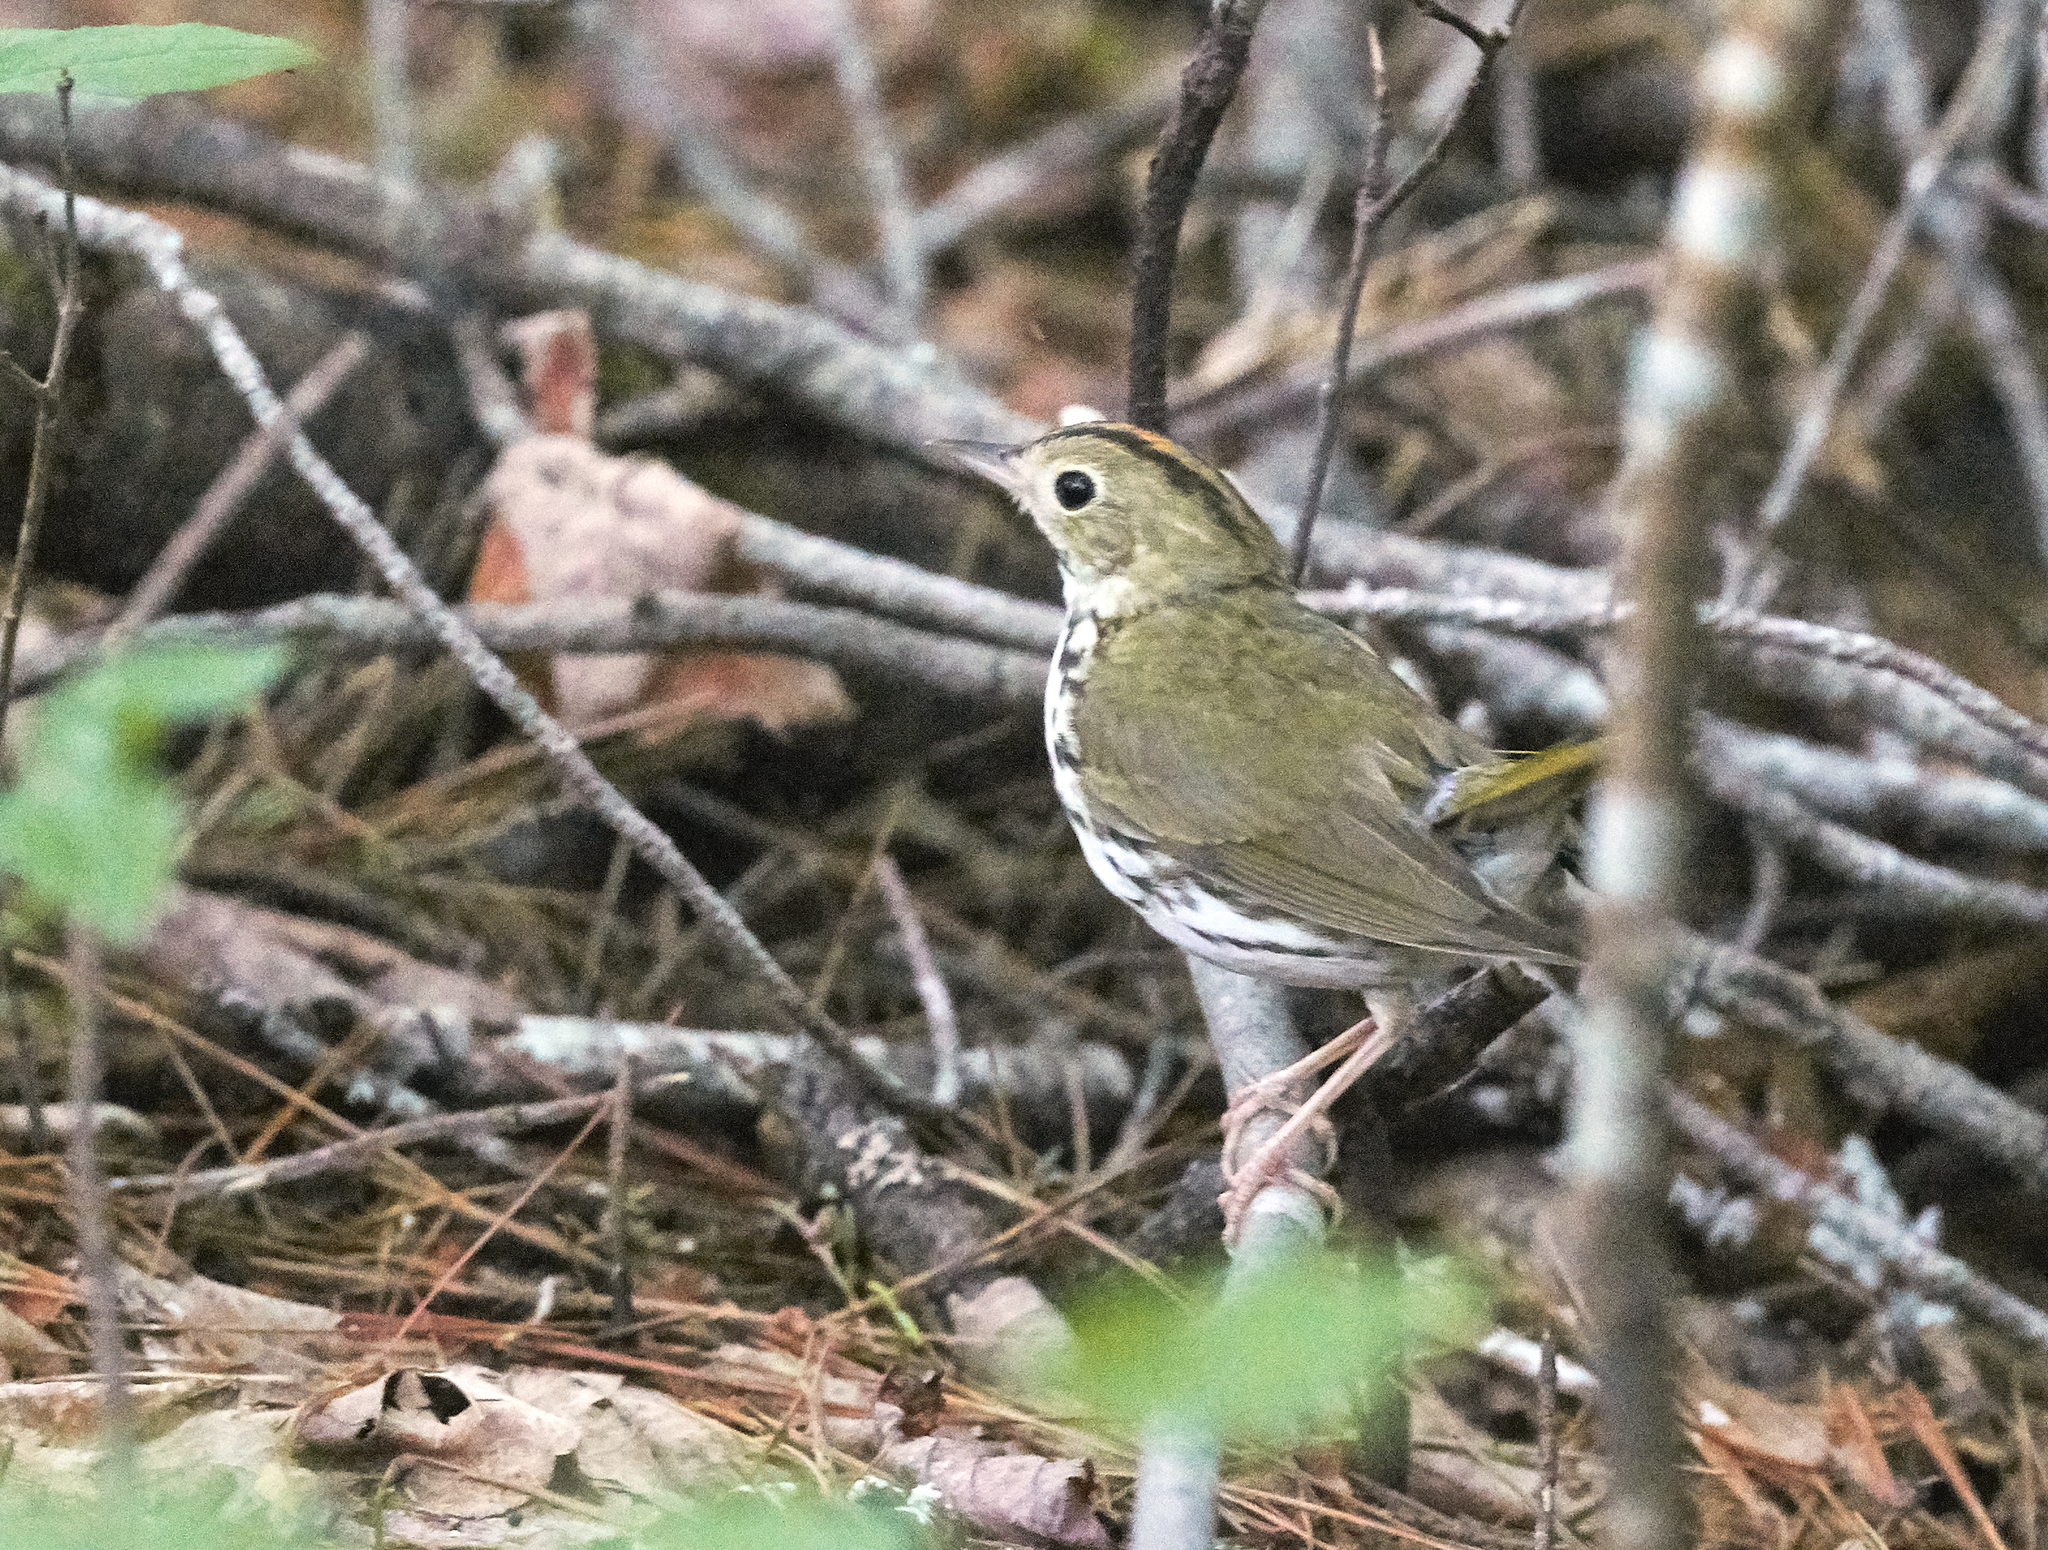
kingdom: Animalia
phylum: Chordata
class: Aves
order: Passeriformes
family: Parulidae
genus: Seiurus
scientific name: Seiurus aurocapilla
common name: Ovenbird
